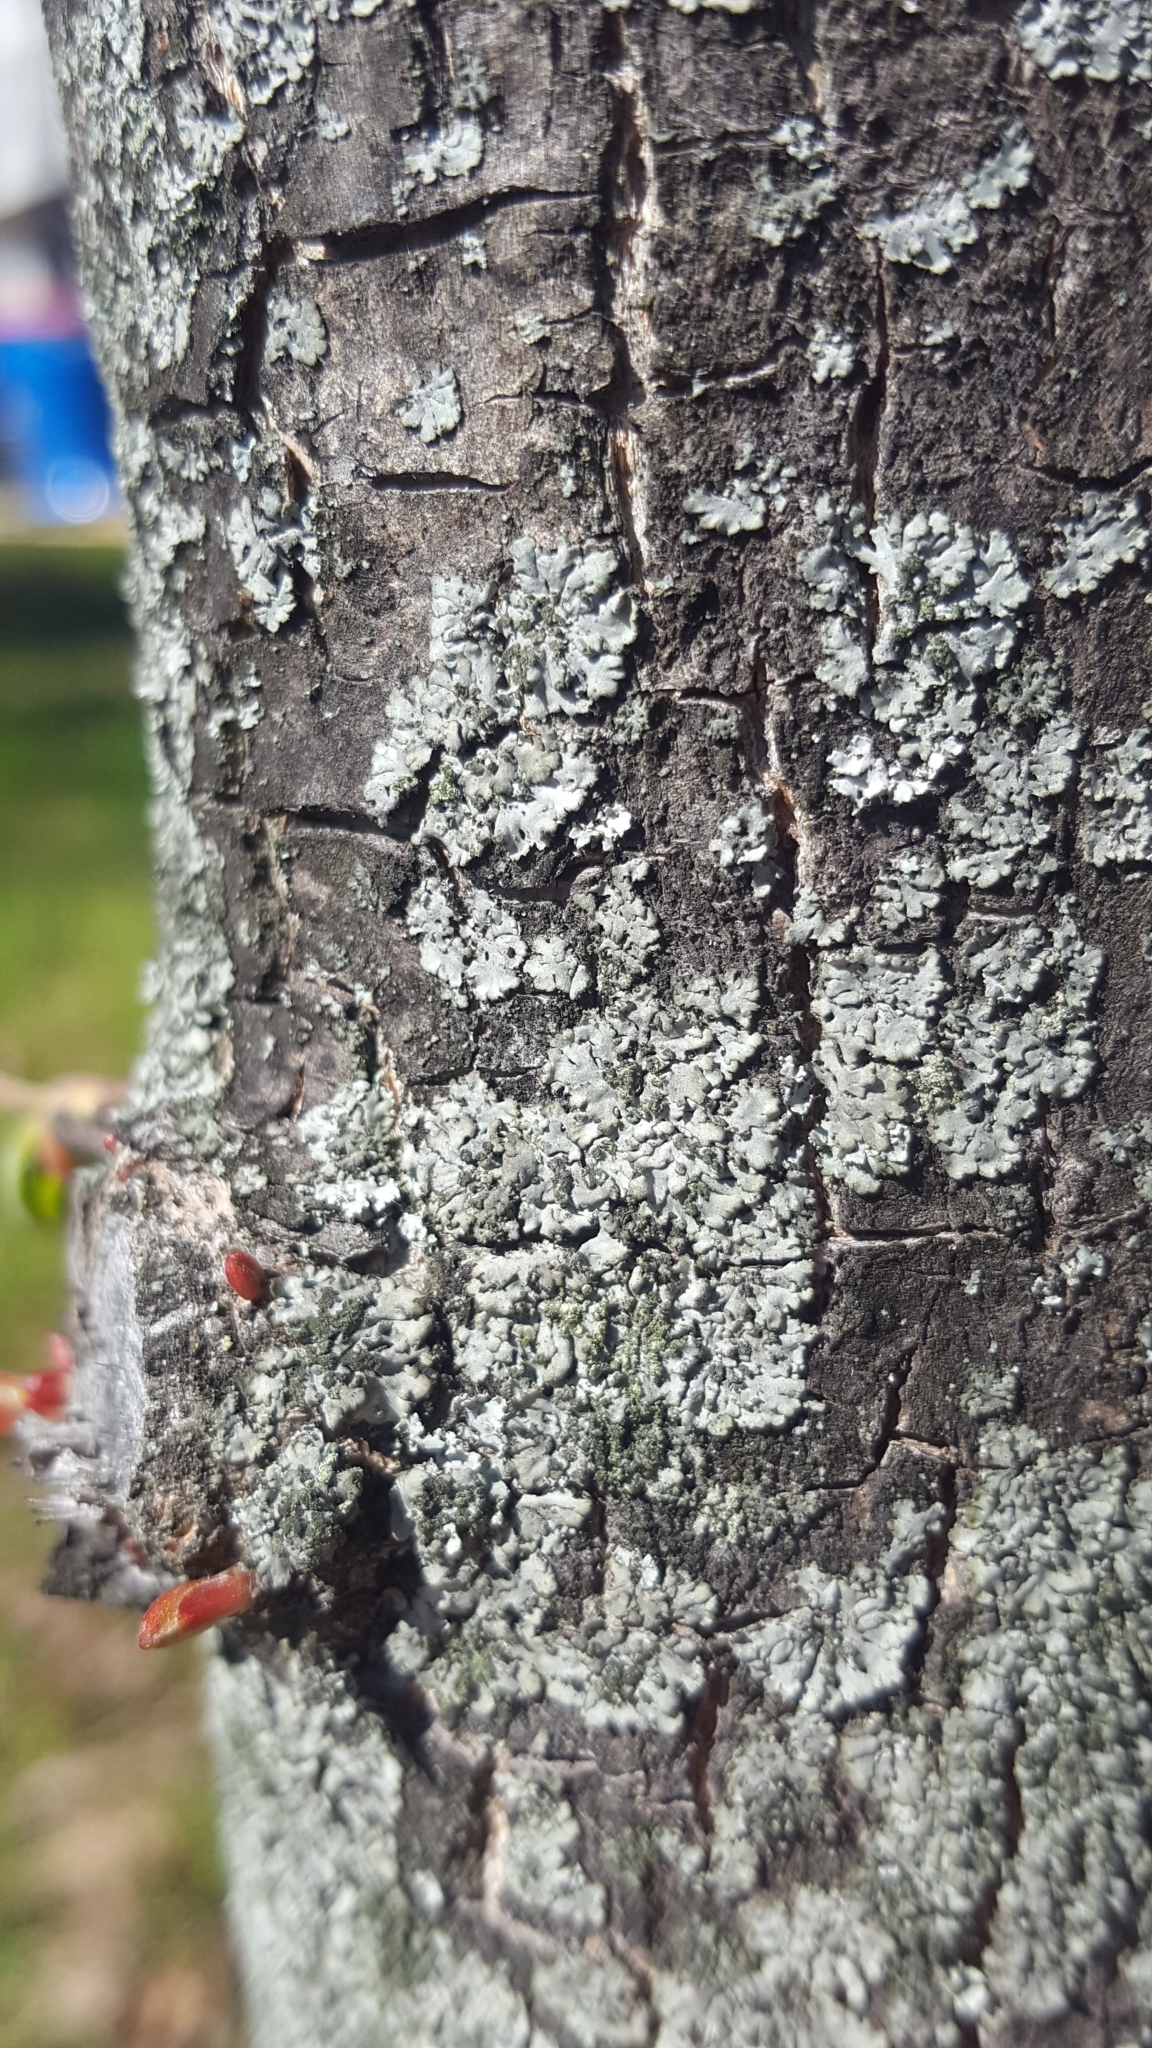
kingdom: Fungi
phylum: Ascomycota
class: Lecanoromycetes
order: Caliciales
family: Physciaceae
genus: Phaeophyscia
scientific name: Phaeophyscia orbicularis
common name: Mealy shadow lichen
